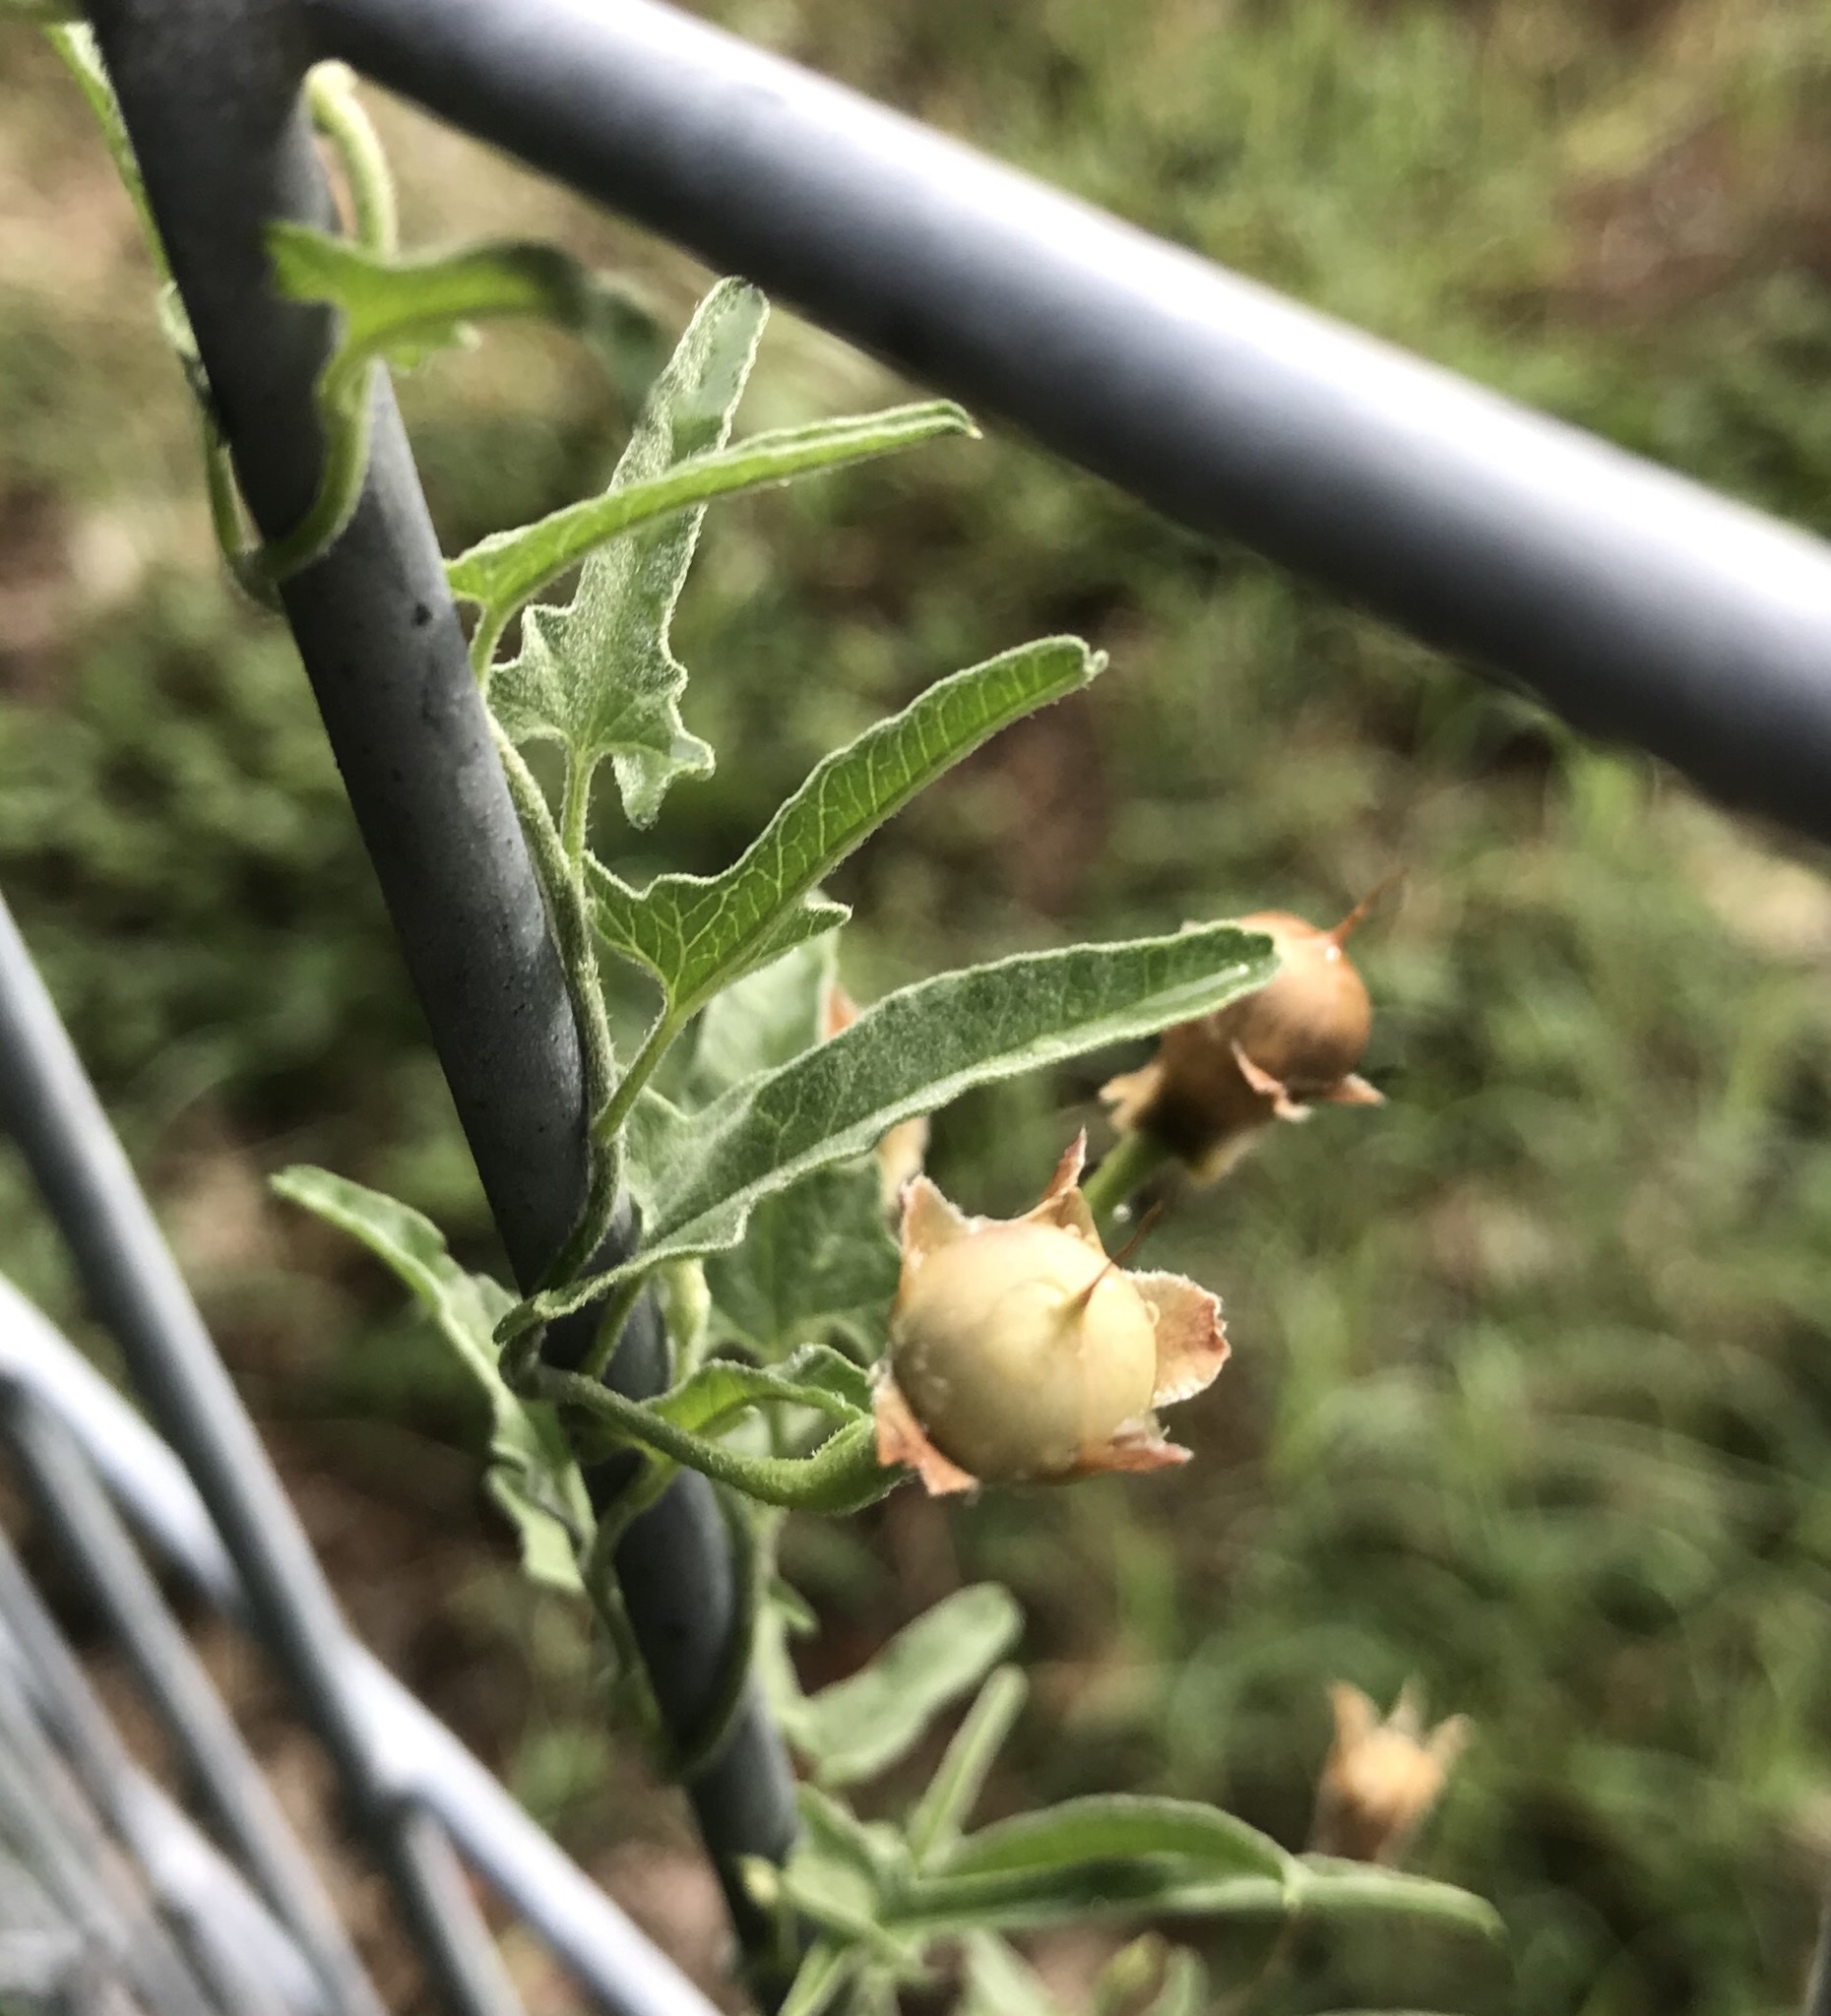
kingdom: Plantae
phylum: Tracheophyta
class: Magnoliopsida
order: Solanales
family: Convolvulaceae
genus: Convolvulus
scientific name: Convolvulus equitans
